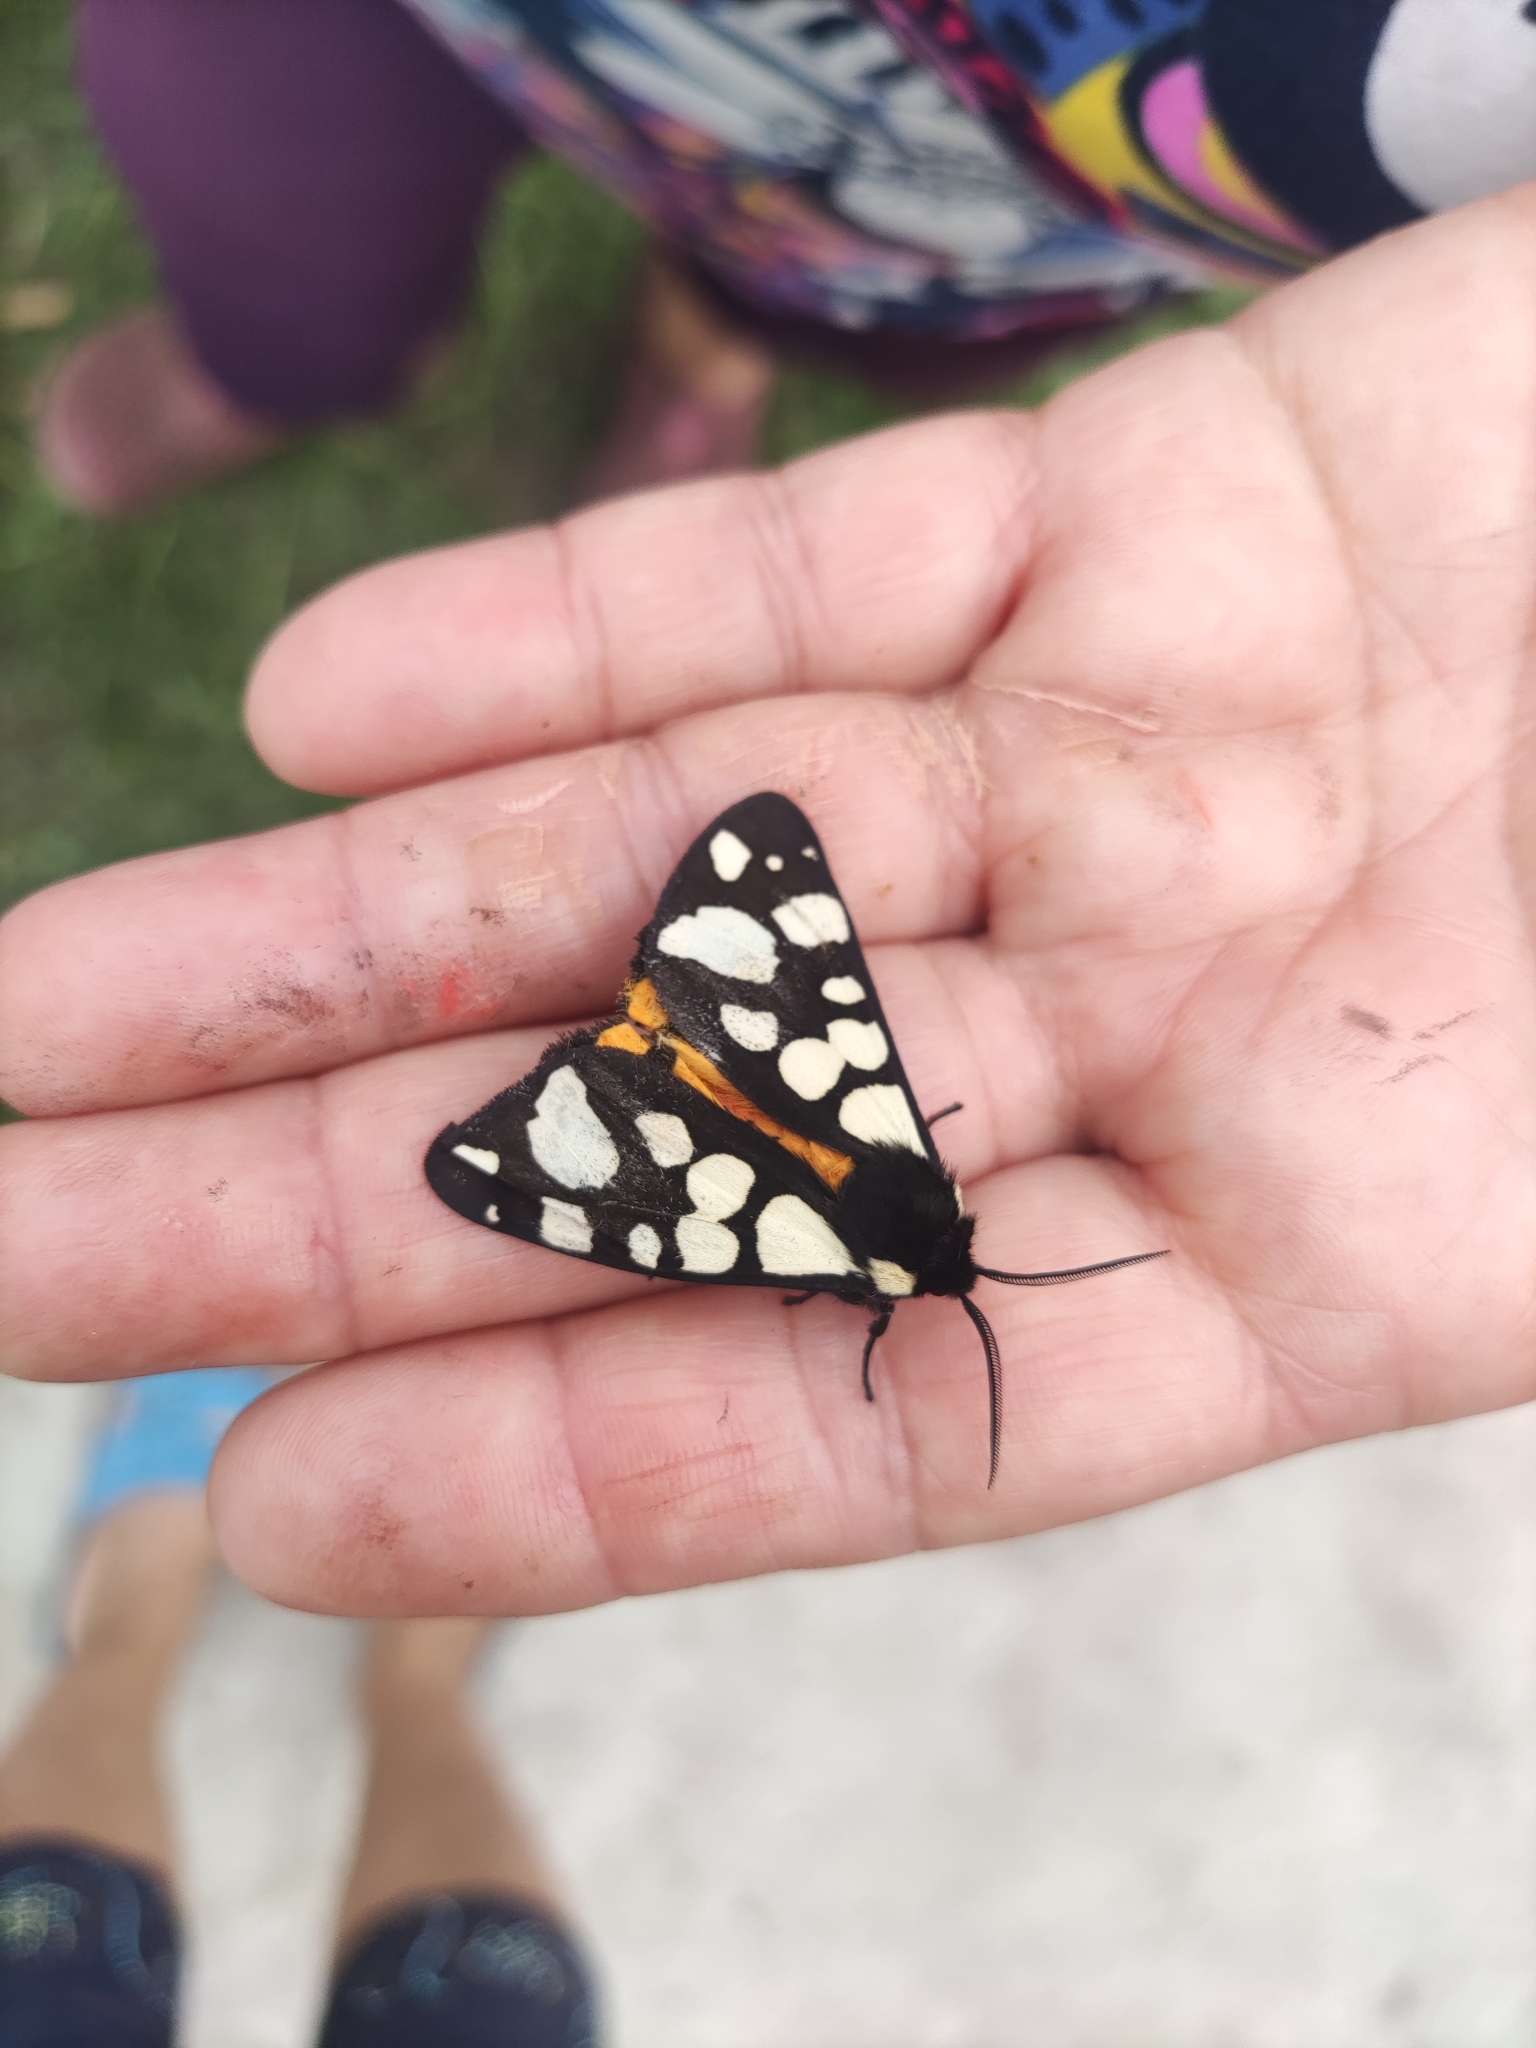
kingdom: Animalia
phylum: Arthropoda
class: Insecta
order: Lepidoptera
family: Erebidae
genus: Epicallia
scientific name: Epicallia villica
